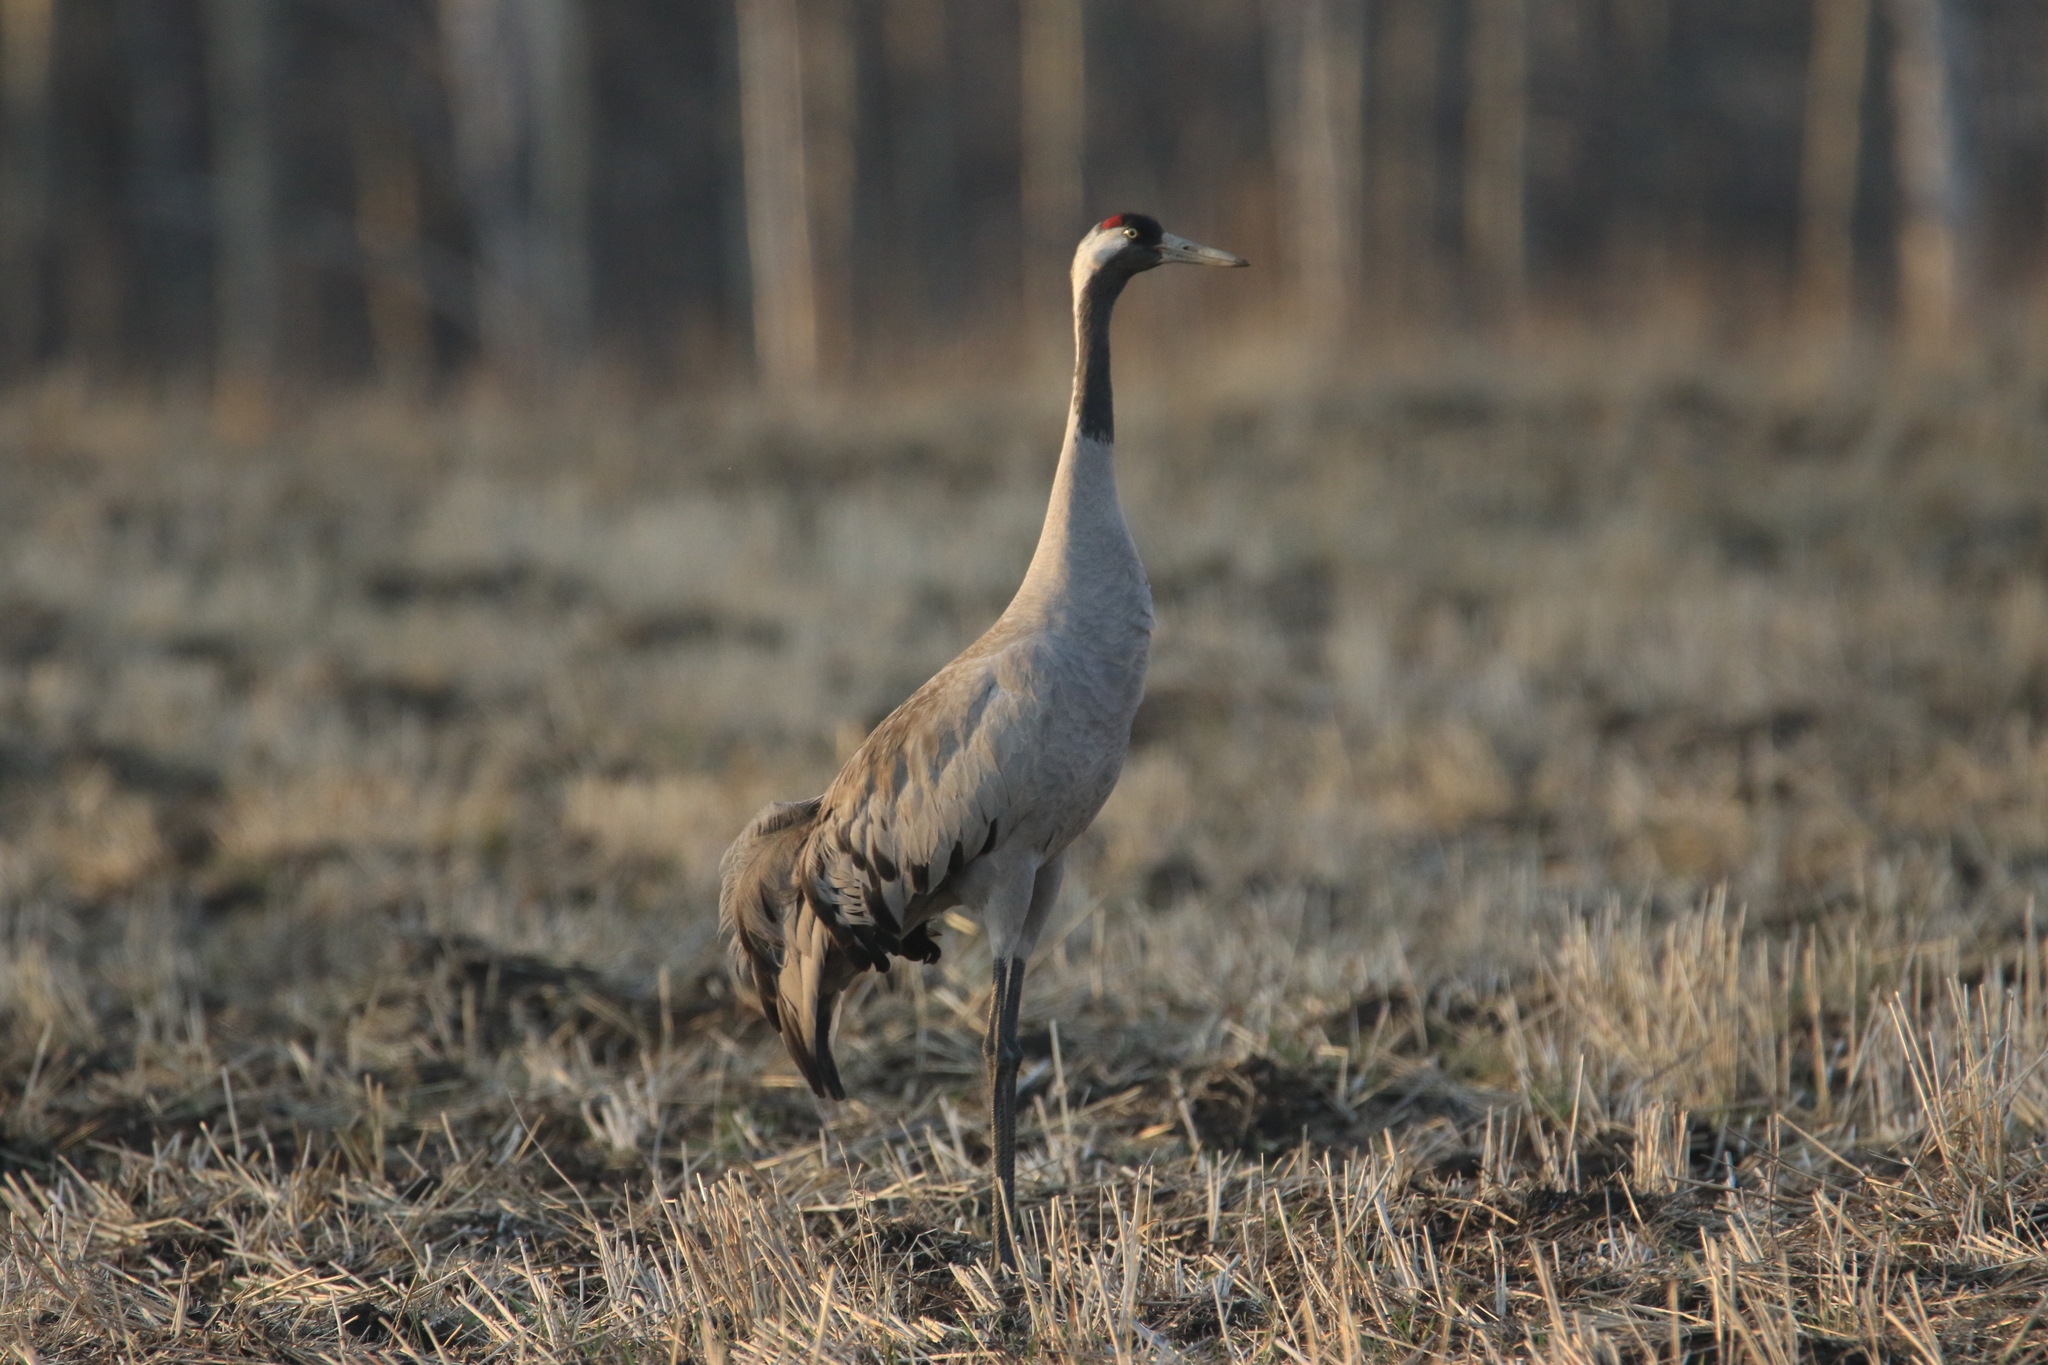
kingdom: Animalia
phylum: Chordata
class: Aves
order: Gruiformes
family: Gruidae
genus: Grus
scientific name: Grus grus
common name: Common crane
